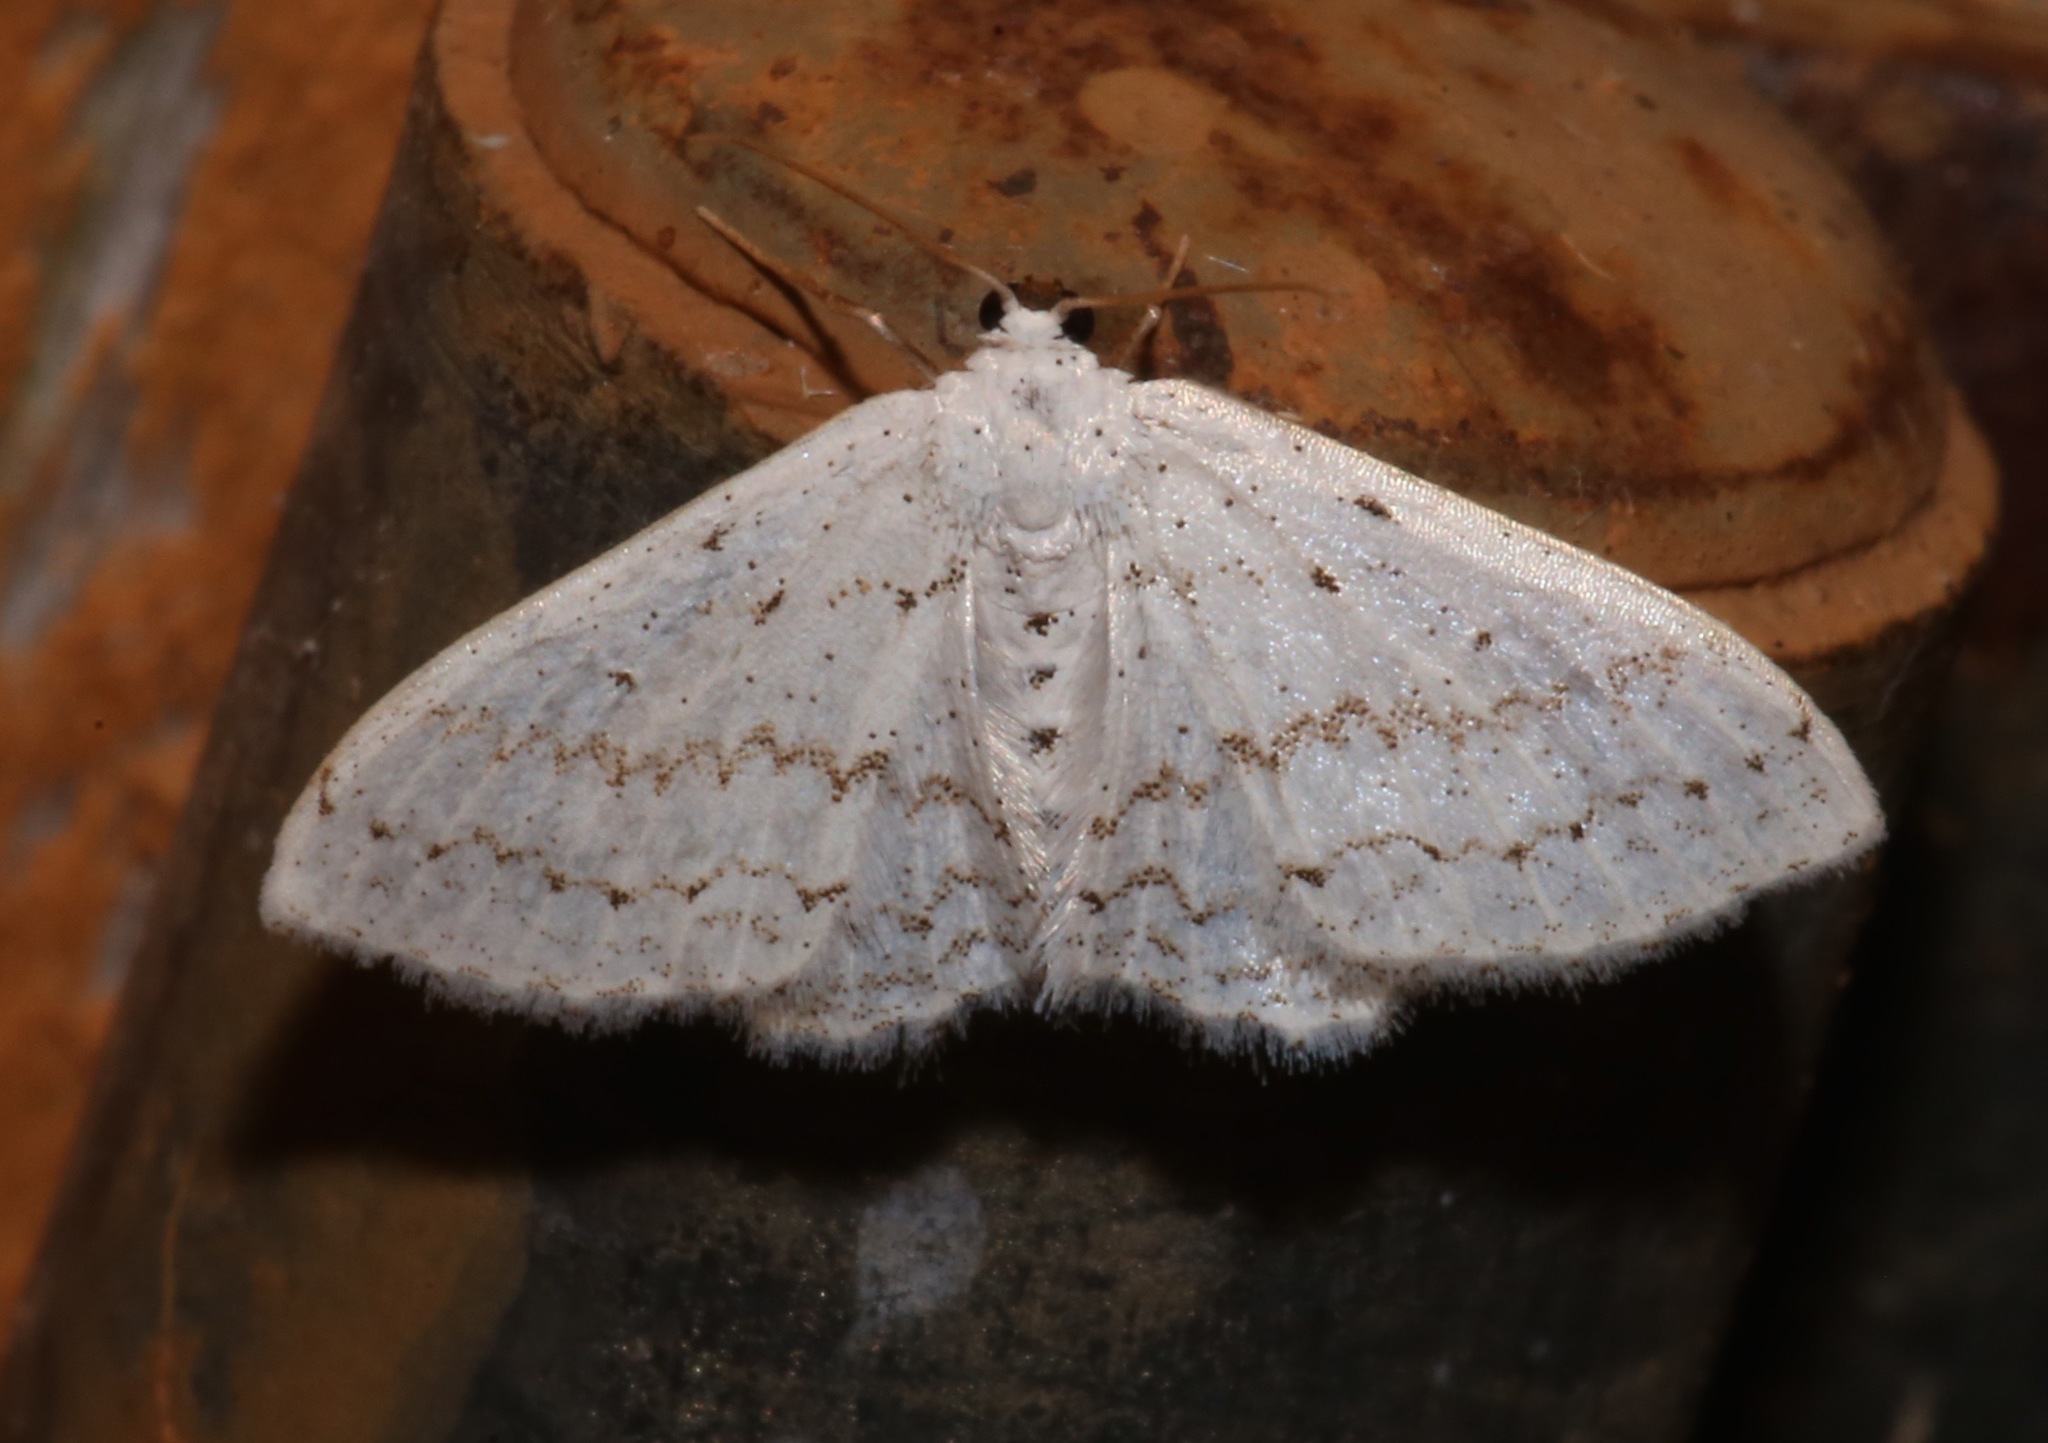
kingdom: Animalia
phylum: Arthropoda
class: Insecta
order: Lepidoptera
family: Geometridae
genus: Idaea
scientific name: Idaea tacturata
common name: Dot-lined wave
